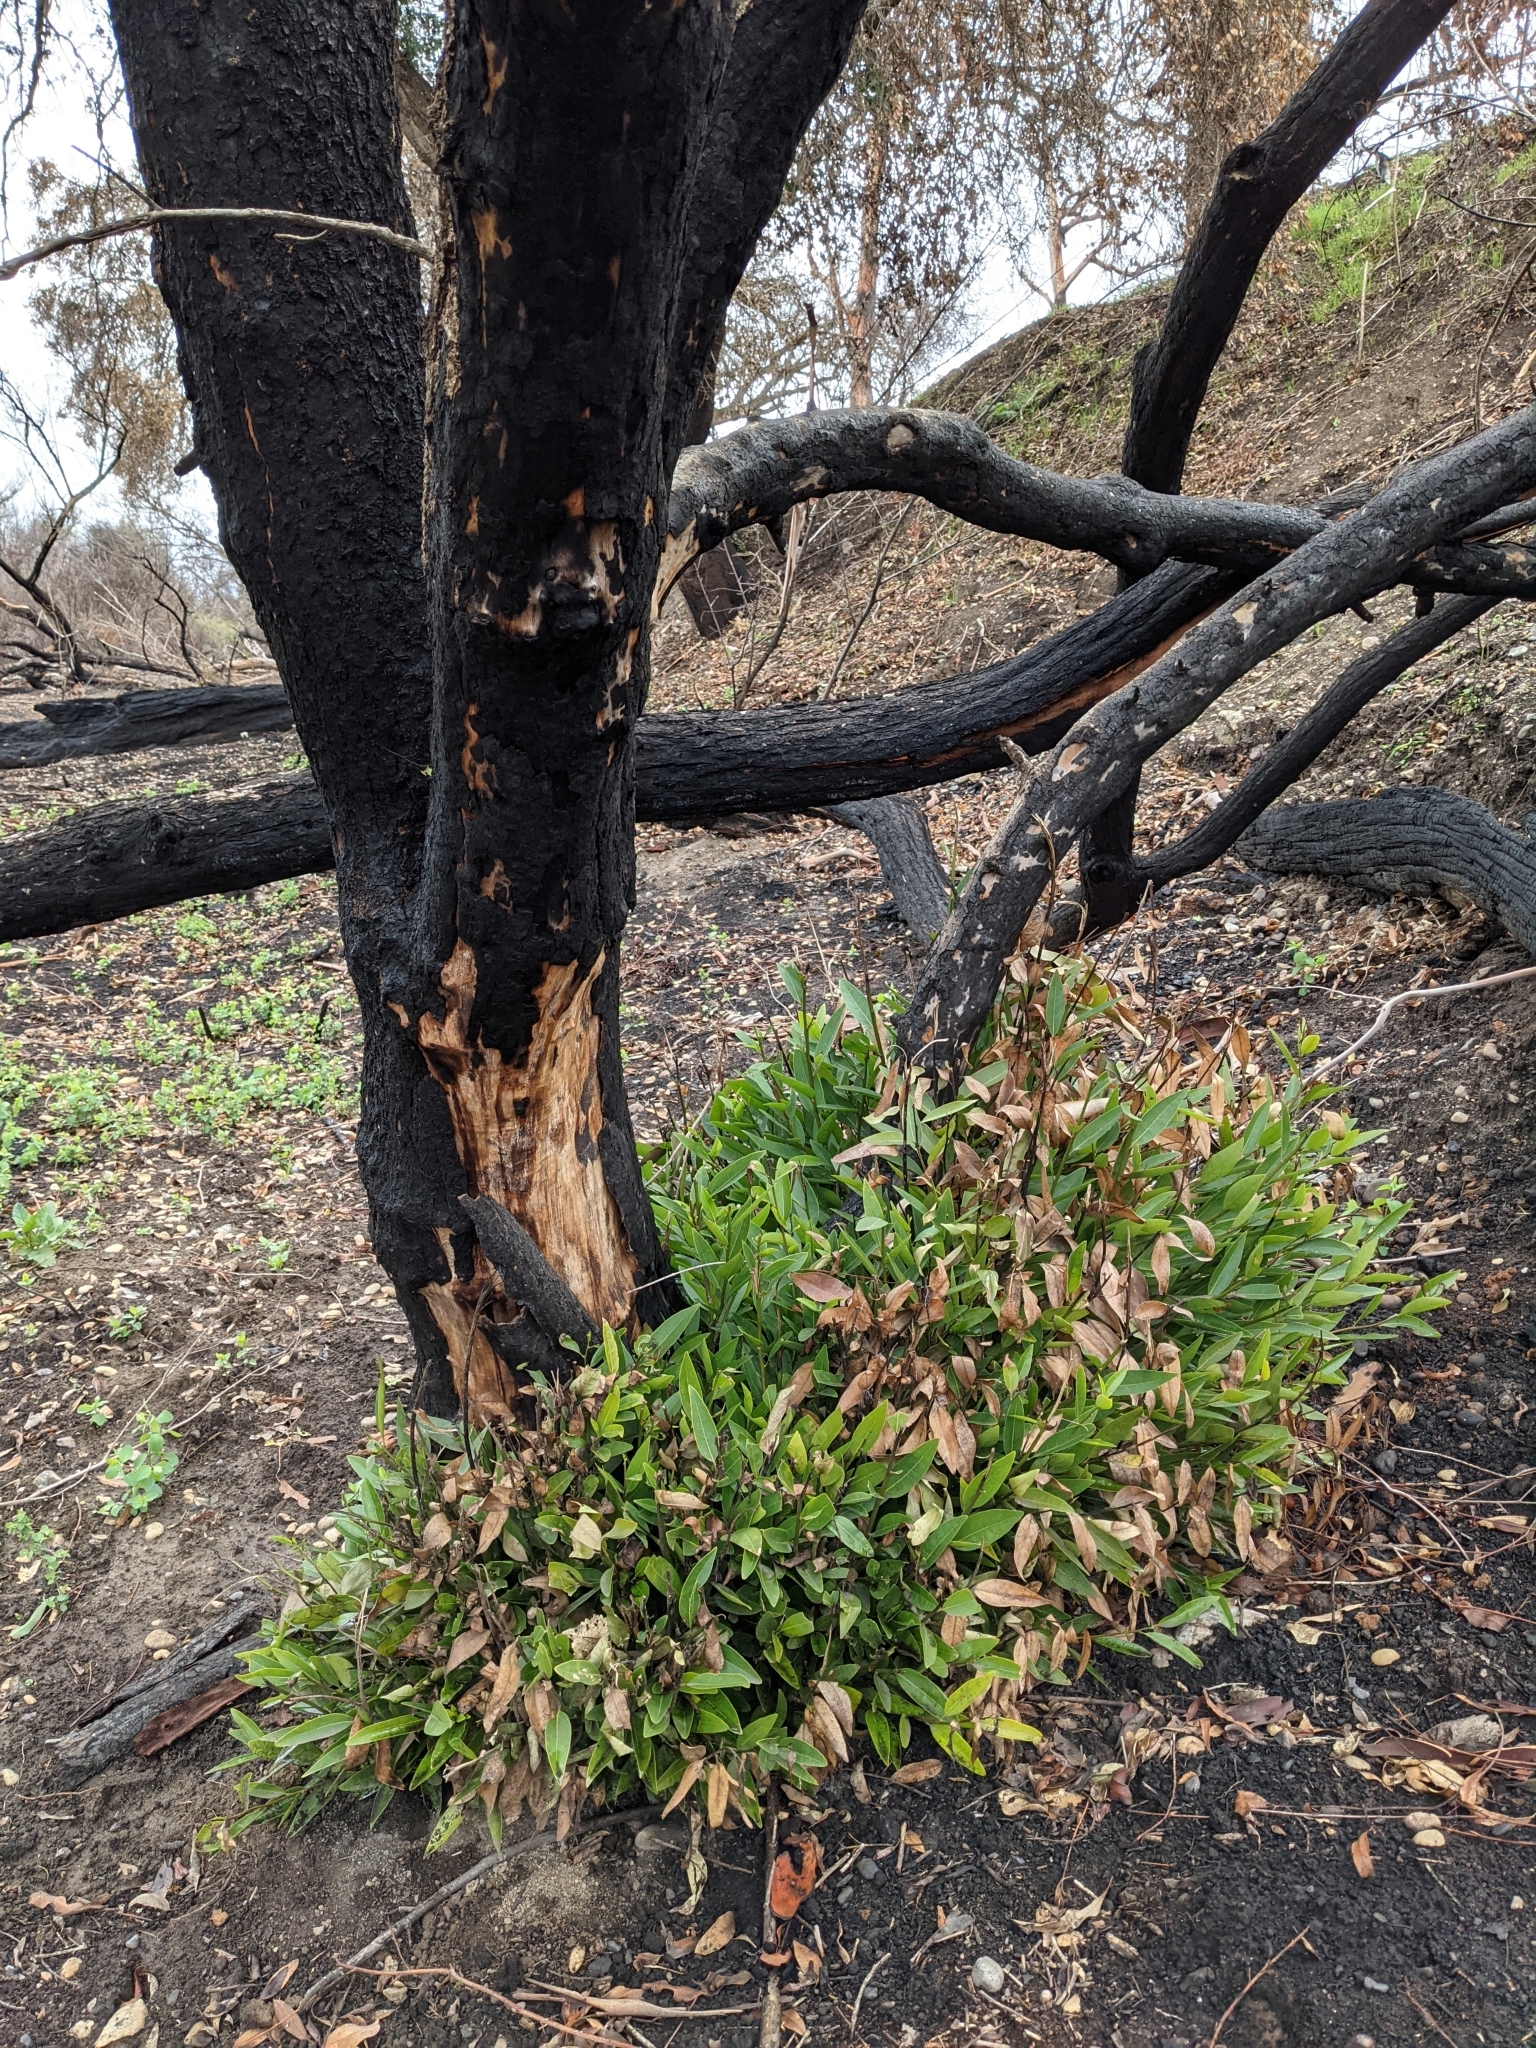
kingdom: Plantae
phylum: Tracheophyta
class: Magnoliopsida
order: Laurales
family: Lauraceae
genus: Umbellularia
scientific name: Umbellularia californica
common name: California bay
